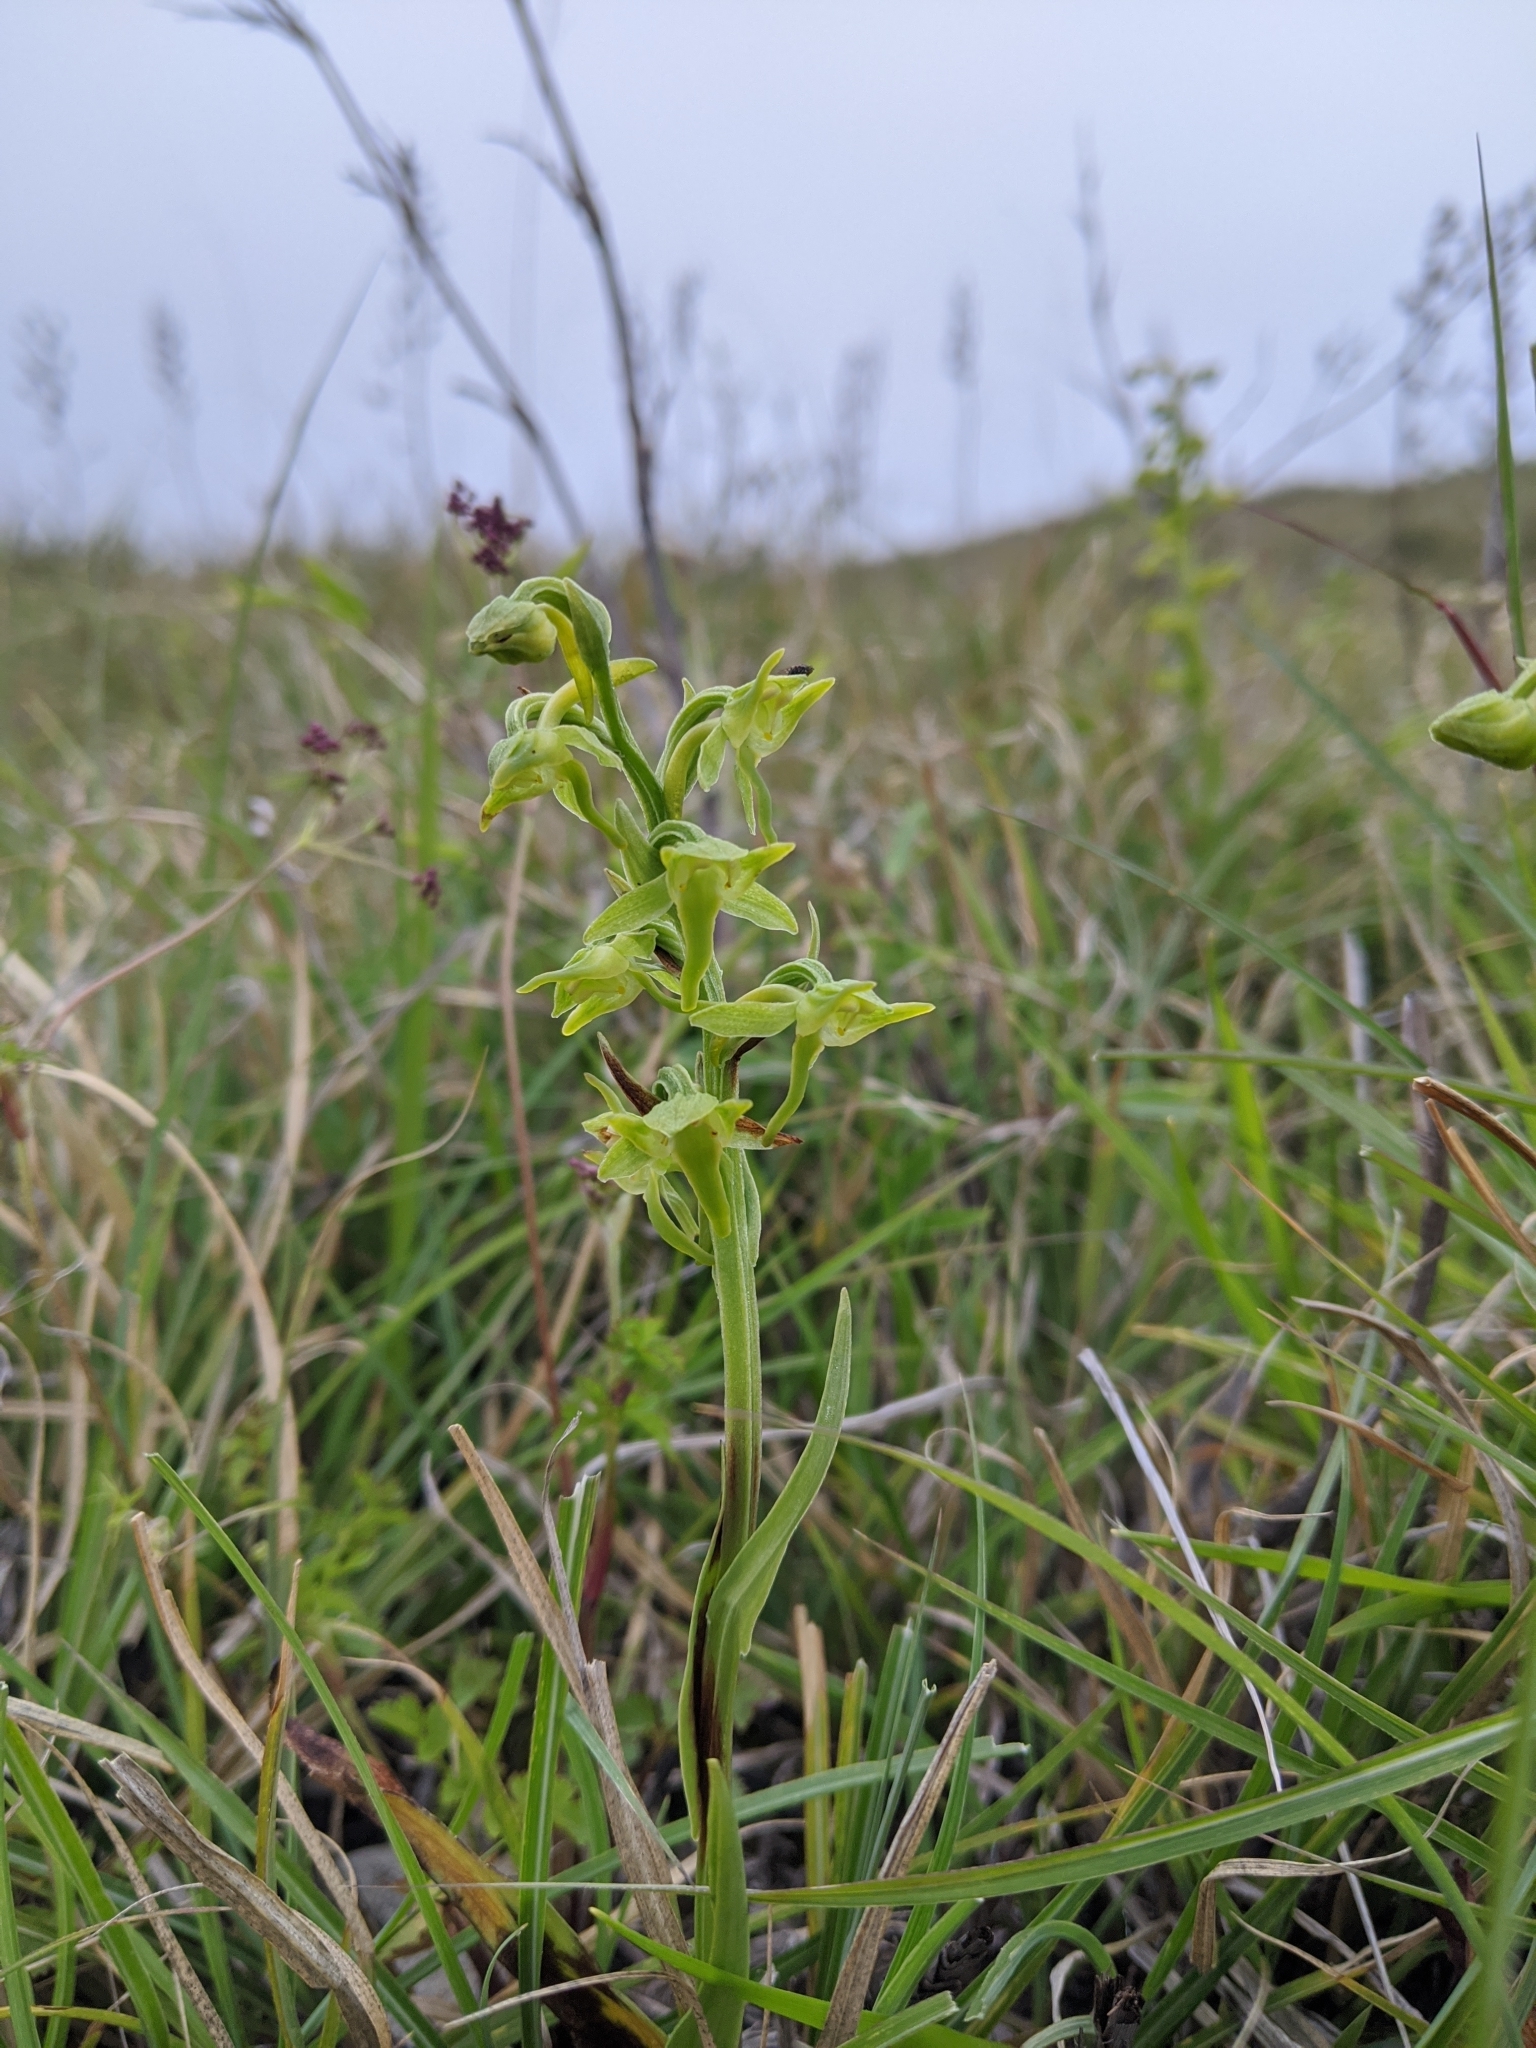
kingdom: Plantae
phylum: Tracheophyta
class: Liliopsida
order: Asparagales
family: Orchidaceae
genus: Platanthera
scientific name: Platanthera pachyglossa
